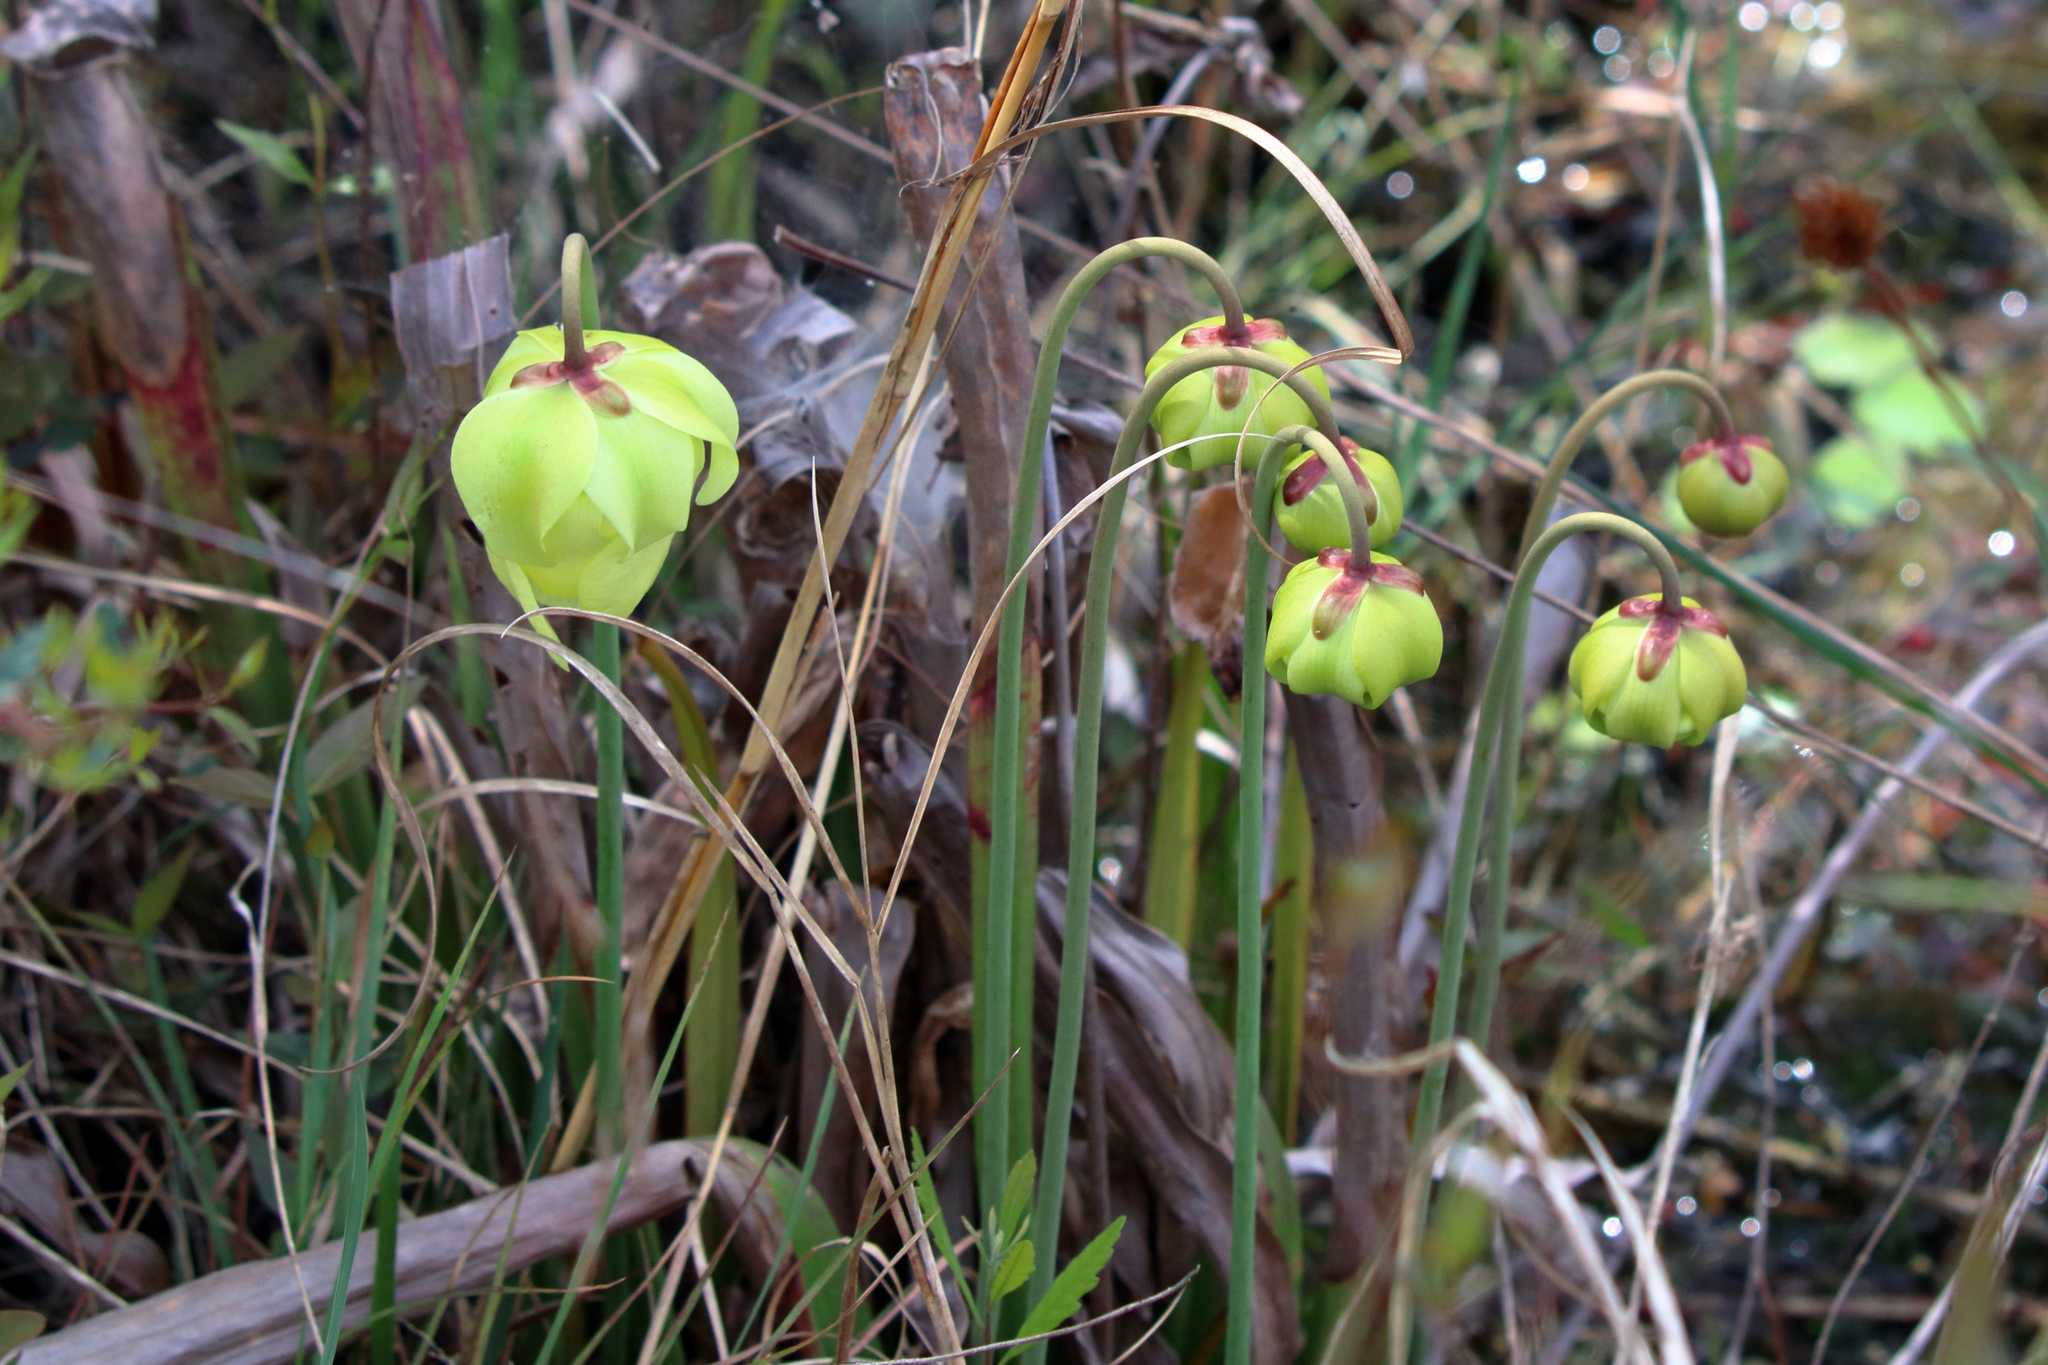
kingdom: Plantae
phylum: Tracheophyta
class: Magnoliopsida
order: Ericales
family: Sarraceniaceae
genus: Sarracenia
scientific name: Sarracenia alata
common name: Yellow trumpets
